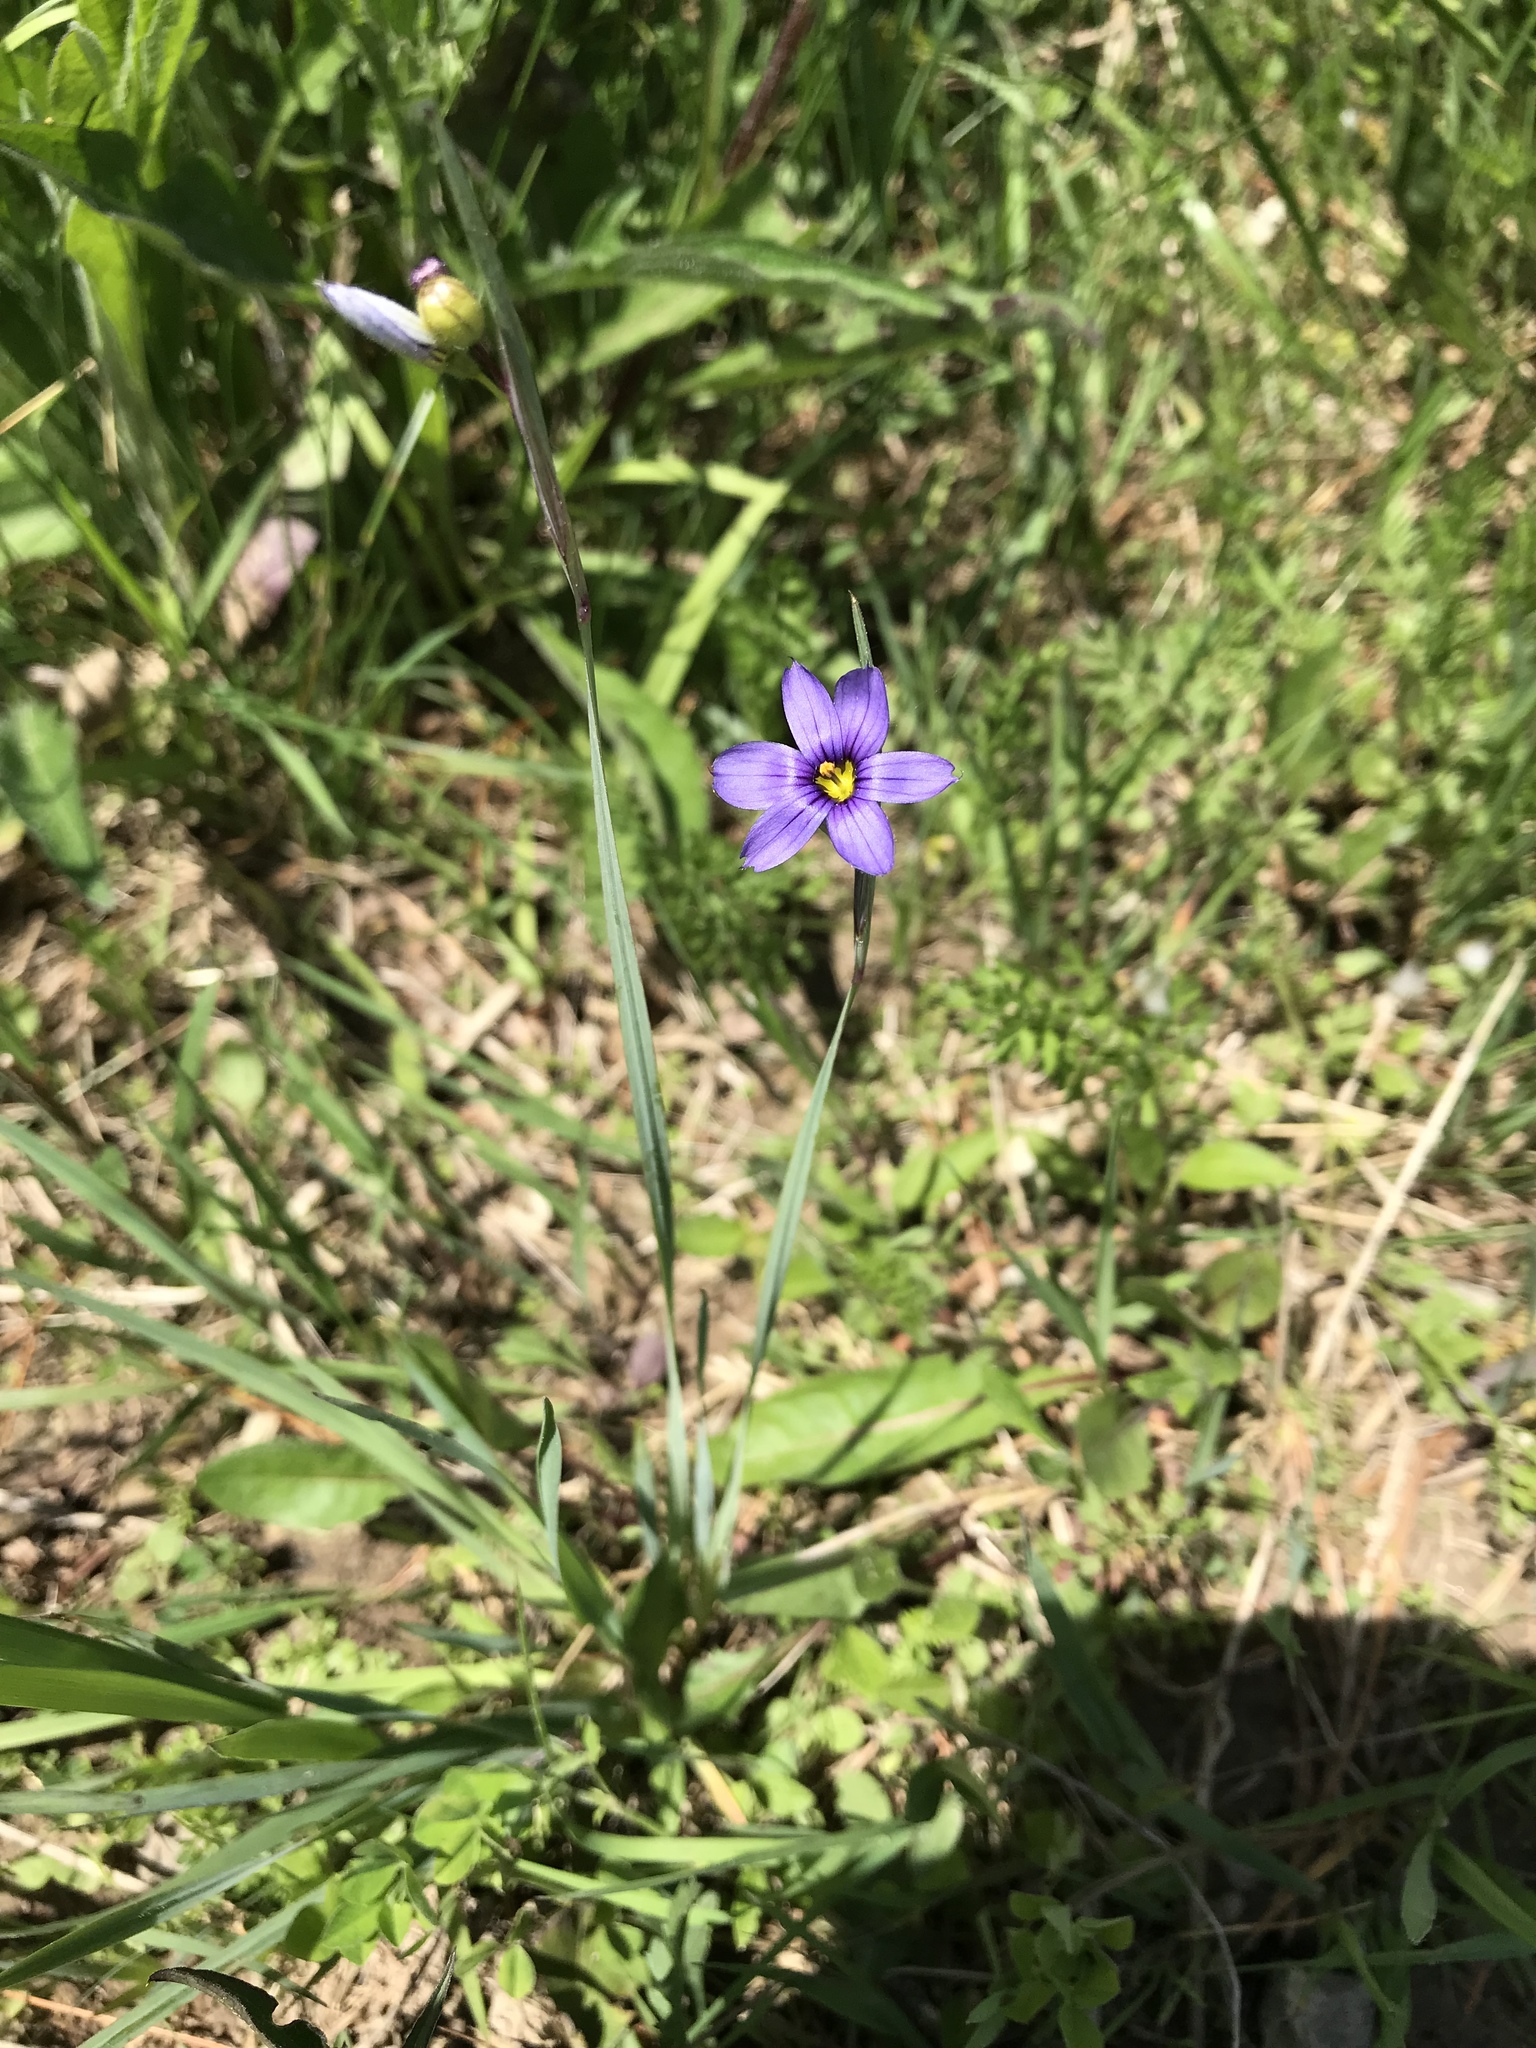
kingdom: Plantae
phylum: Tracheophyta
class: Liliopsida
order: Asparagales
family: Iridaceae
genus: Sisyrinchium
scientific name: Sisyrinchium montanum
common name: American blue-eyed-grass
